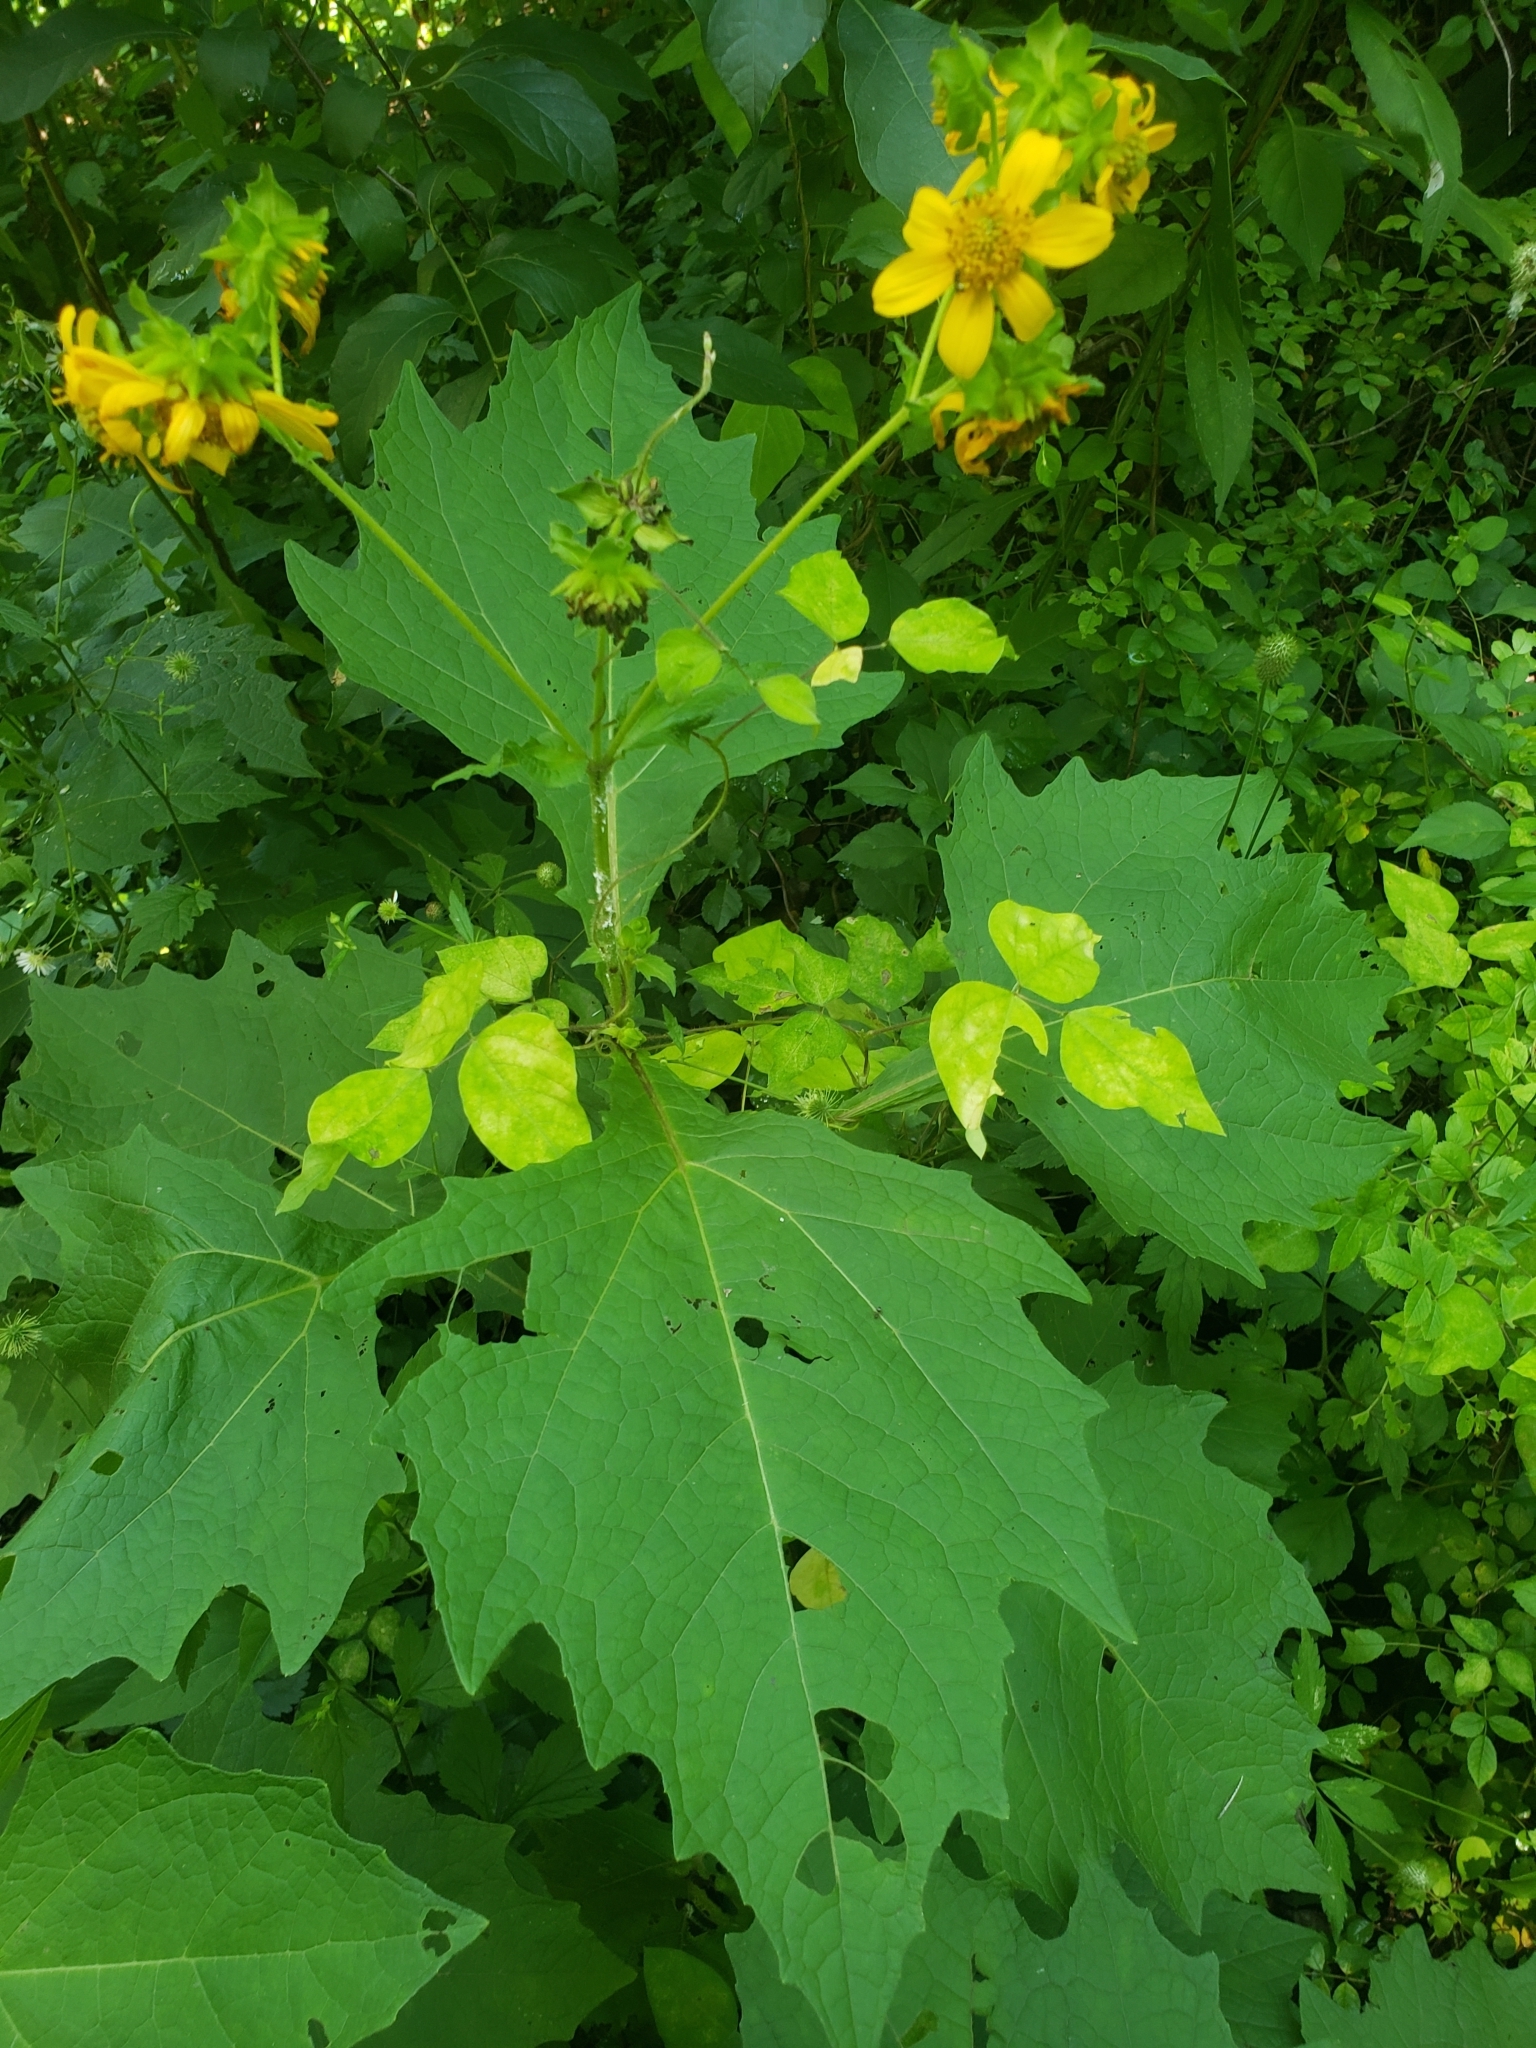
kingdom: Plantae
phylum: Tracheophyta
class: Magnoliopsida
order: Asterales
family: Asteraceae
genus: Smallanthus
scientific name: Smallanthus uvedalia
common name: Bear's-foot
